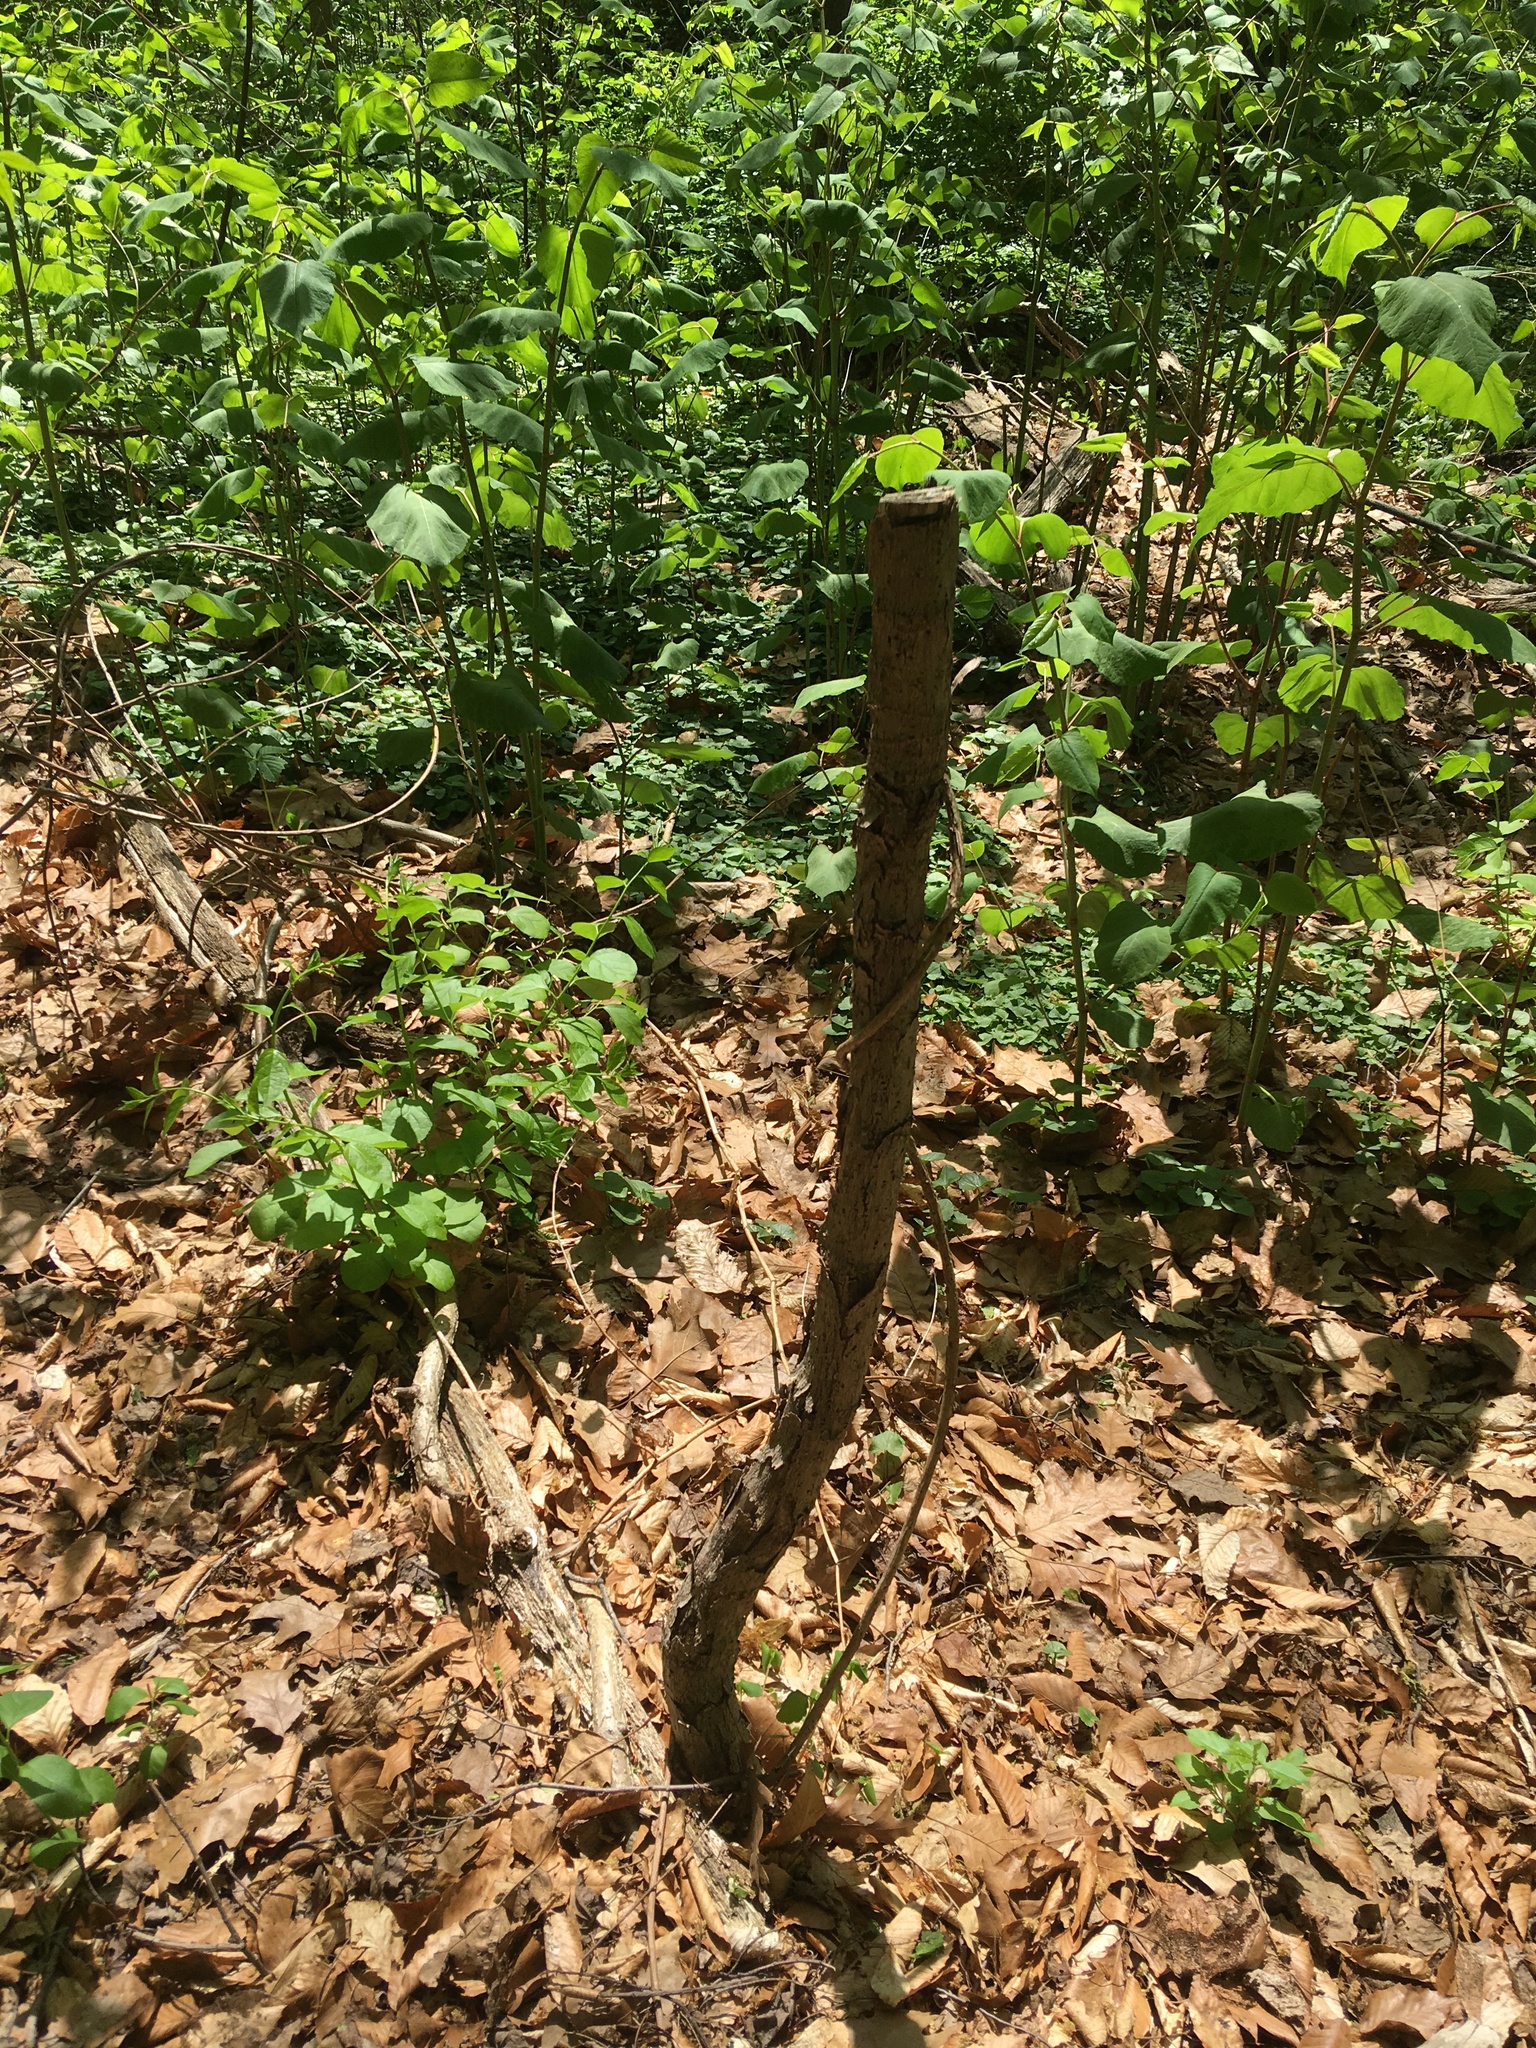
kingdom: Plantae
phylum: Tracheophyta
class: Magnoliopsida
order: Apiales
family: Araliaceae
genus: Aralia
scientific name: Aralia elata
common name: Japanese angelica-tree
